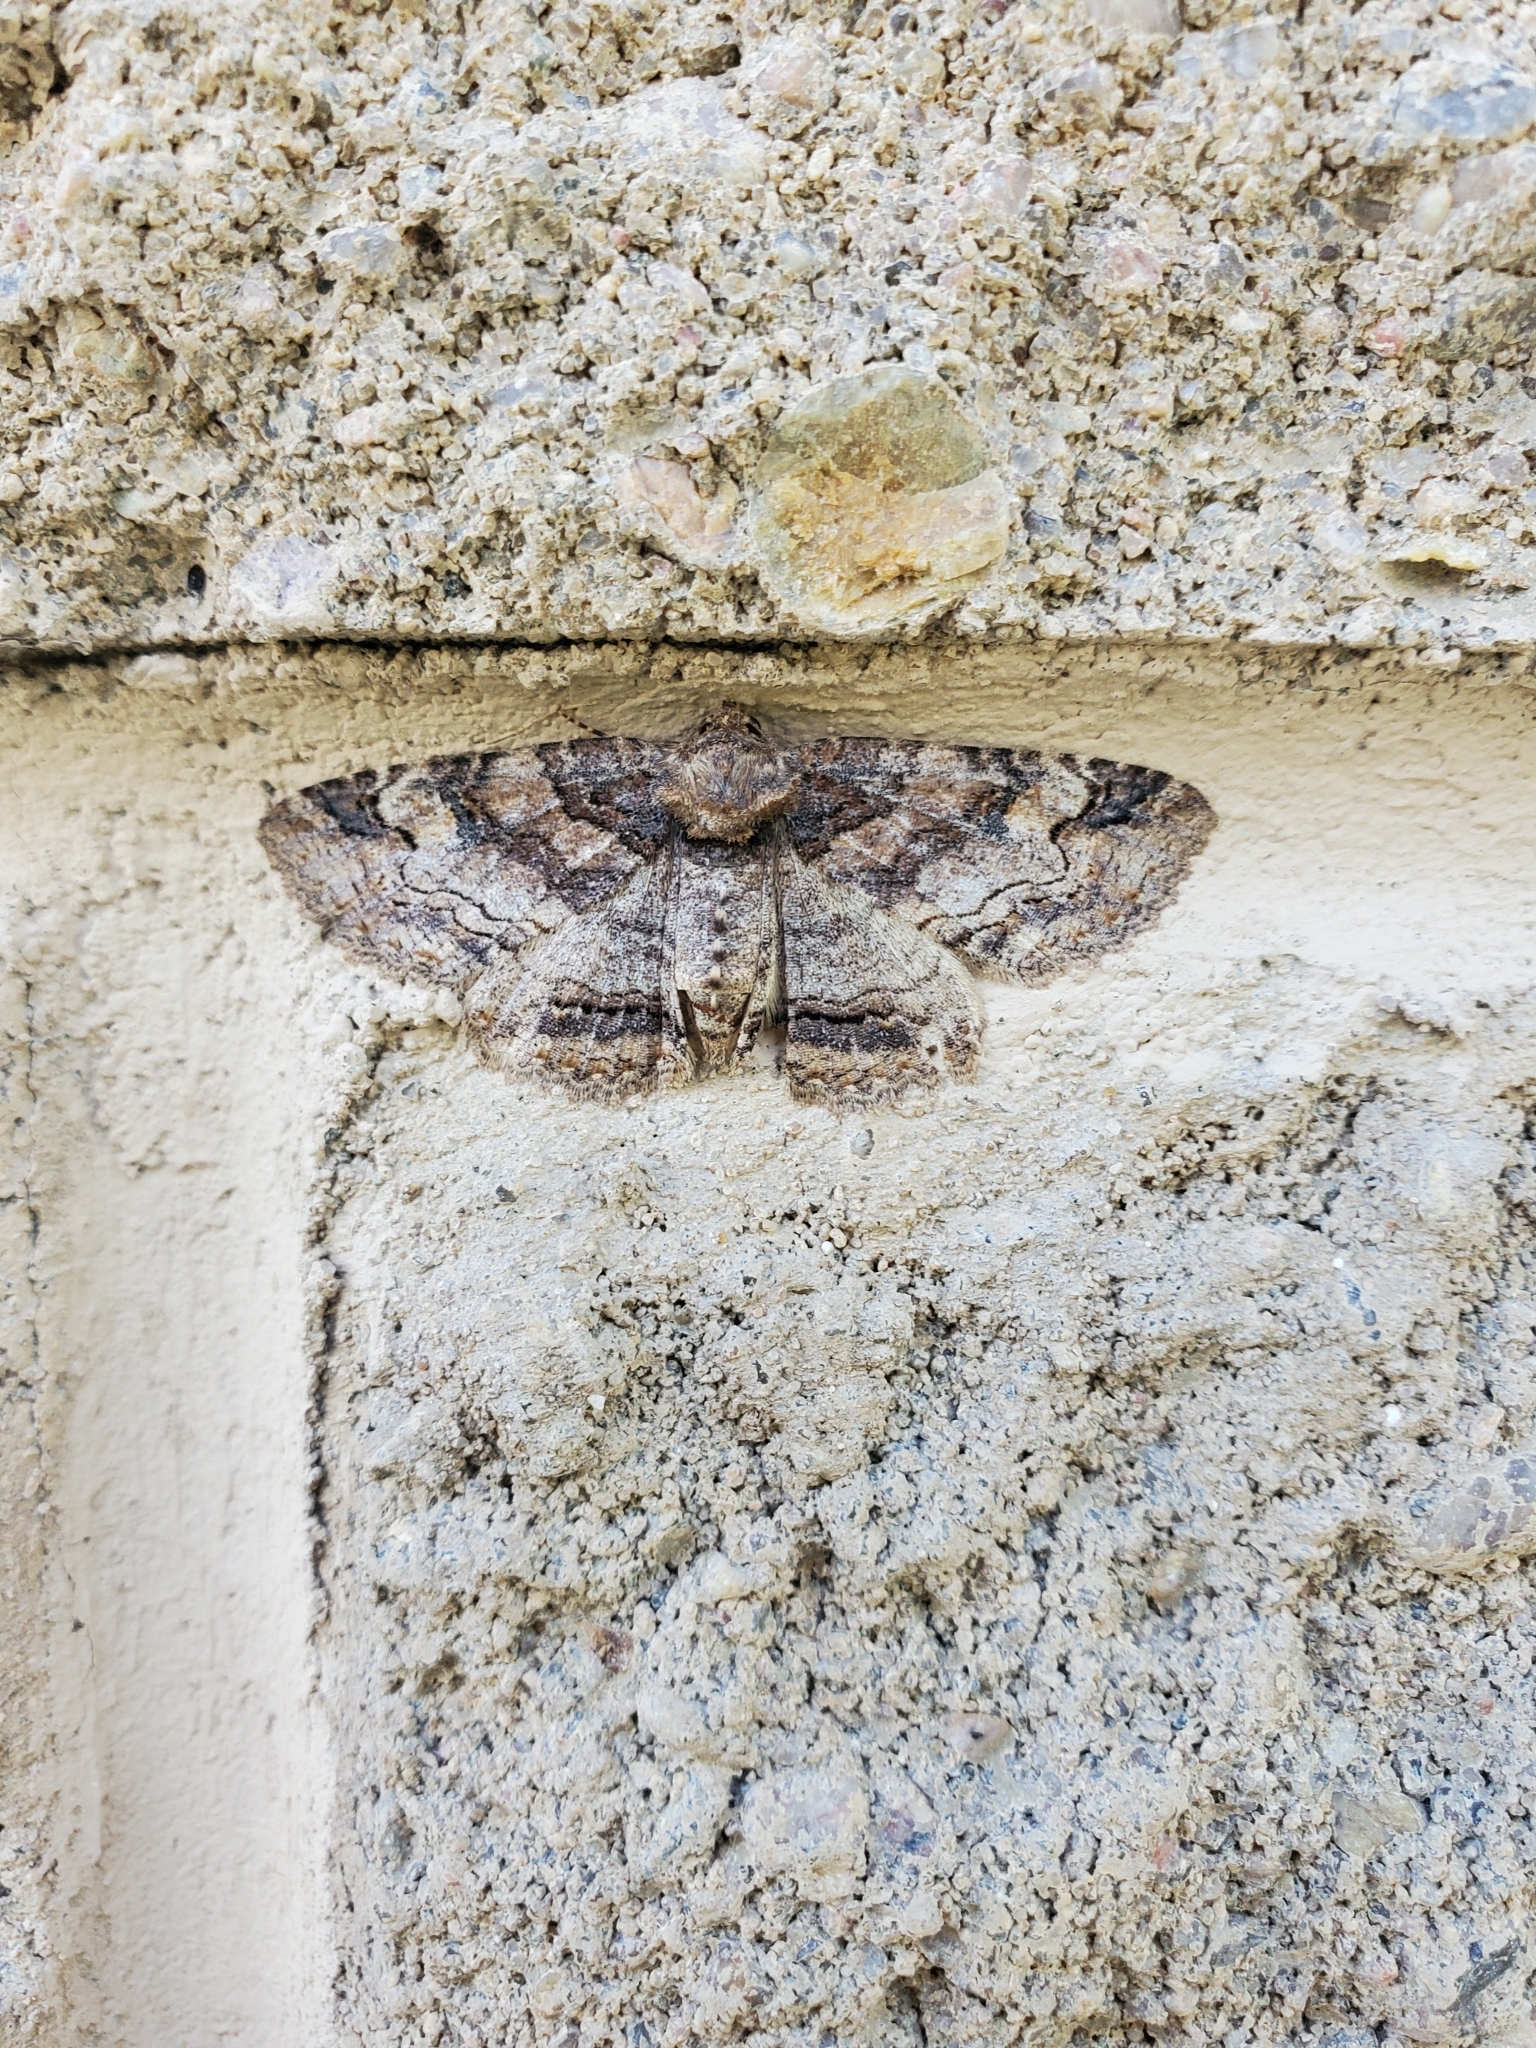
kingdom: Animalia
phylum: Arthropoda
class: Insecta
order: Lepidoptera
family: Erebidae
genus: Zale
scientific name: Zale galbanata
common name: Maple zale
